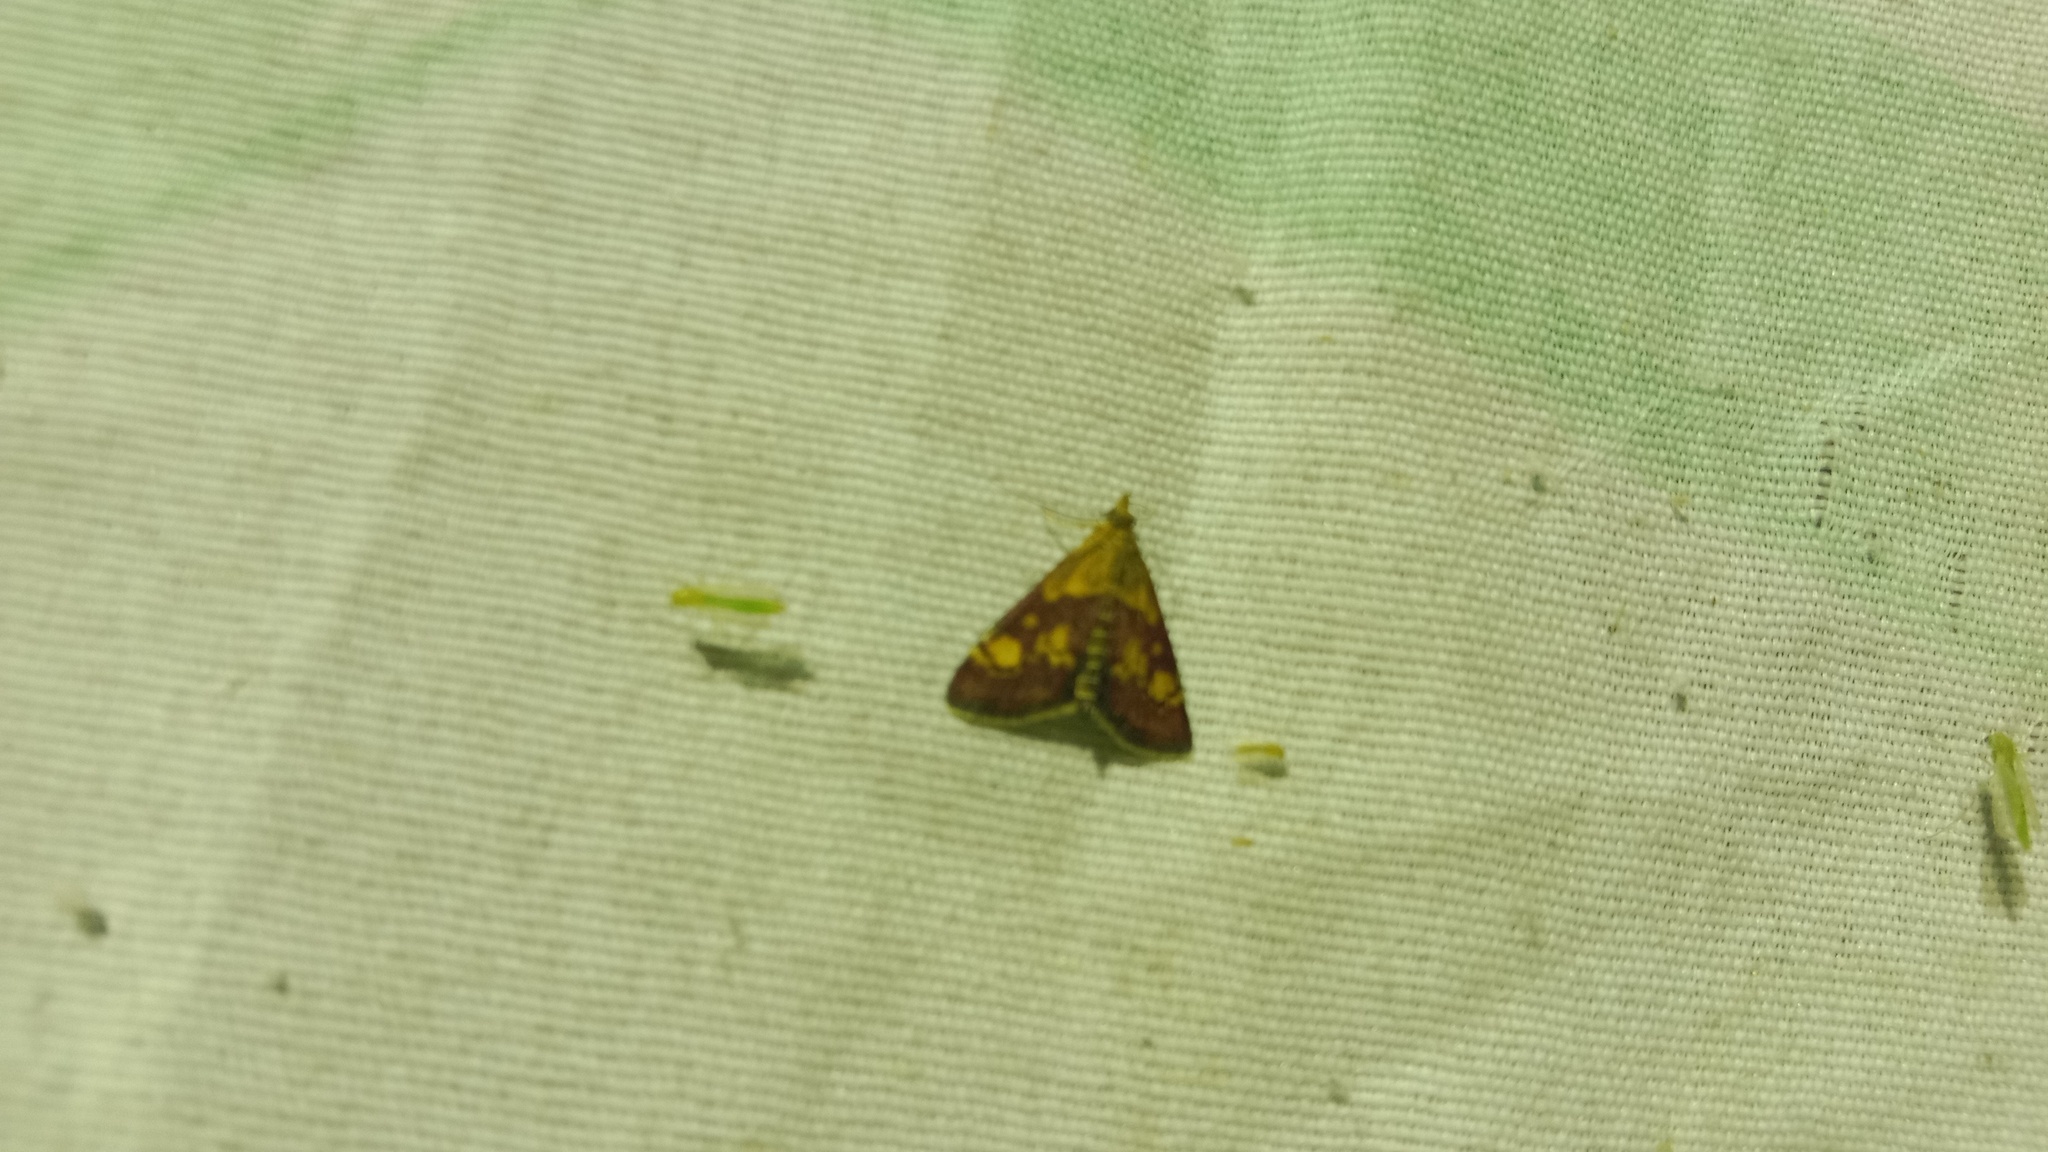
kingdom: Animalia
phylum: Arthropoda
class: Insecta
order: Lepidoptera
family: Crambidae
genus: Pyrausta
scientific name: Pyrausta aurata
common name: Small purple & gold
